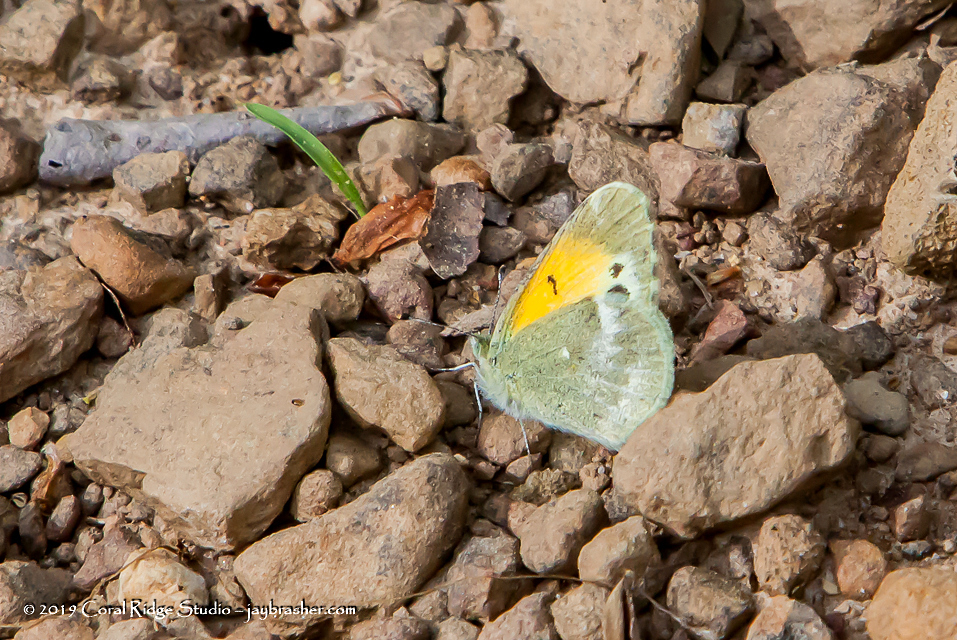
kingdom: Animalia
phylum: Arthropoda
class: Insecta
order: Lepidoptera
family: Pieridae
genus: Nathalis
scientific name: Nathalis iole
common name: Dainty sulphur
